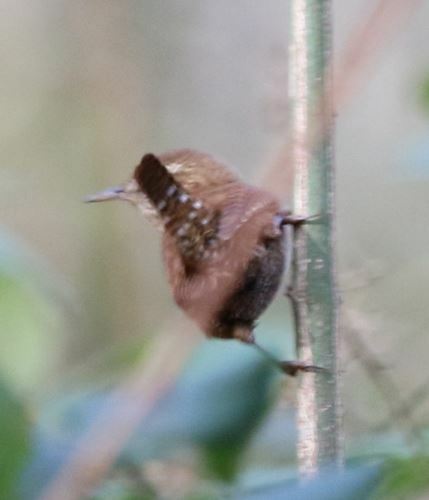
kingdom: Animalia
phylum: Chordata
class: Aves
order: Passeriformes
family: Troglodytidae
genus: Troglodytes
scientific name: Troglodytes troglodytes
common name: Eurasian wren
